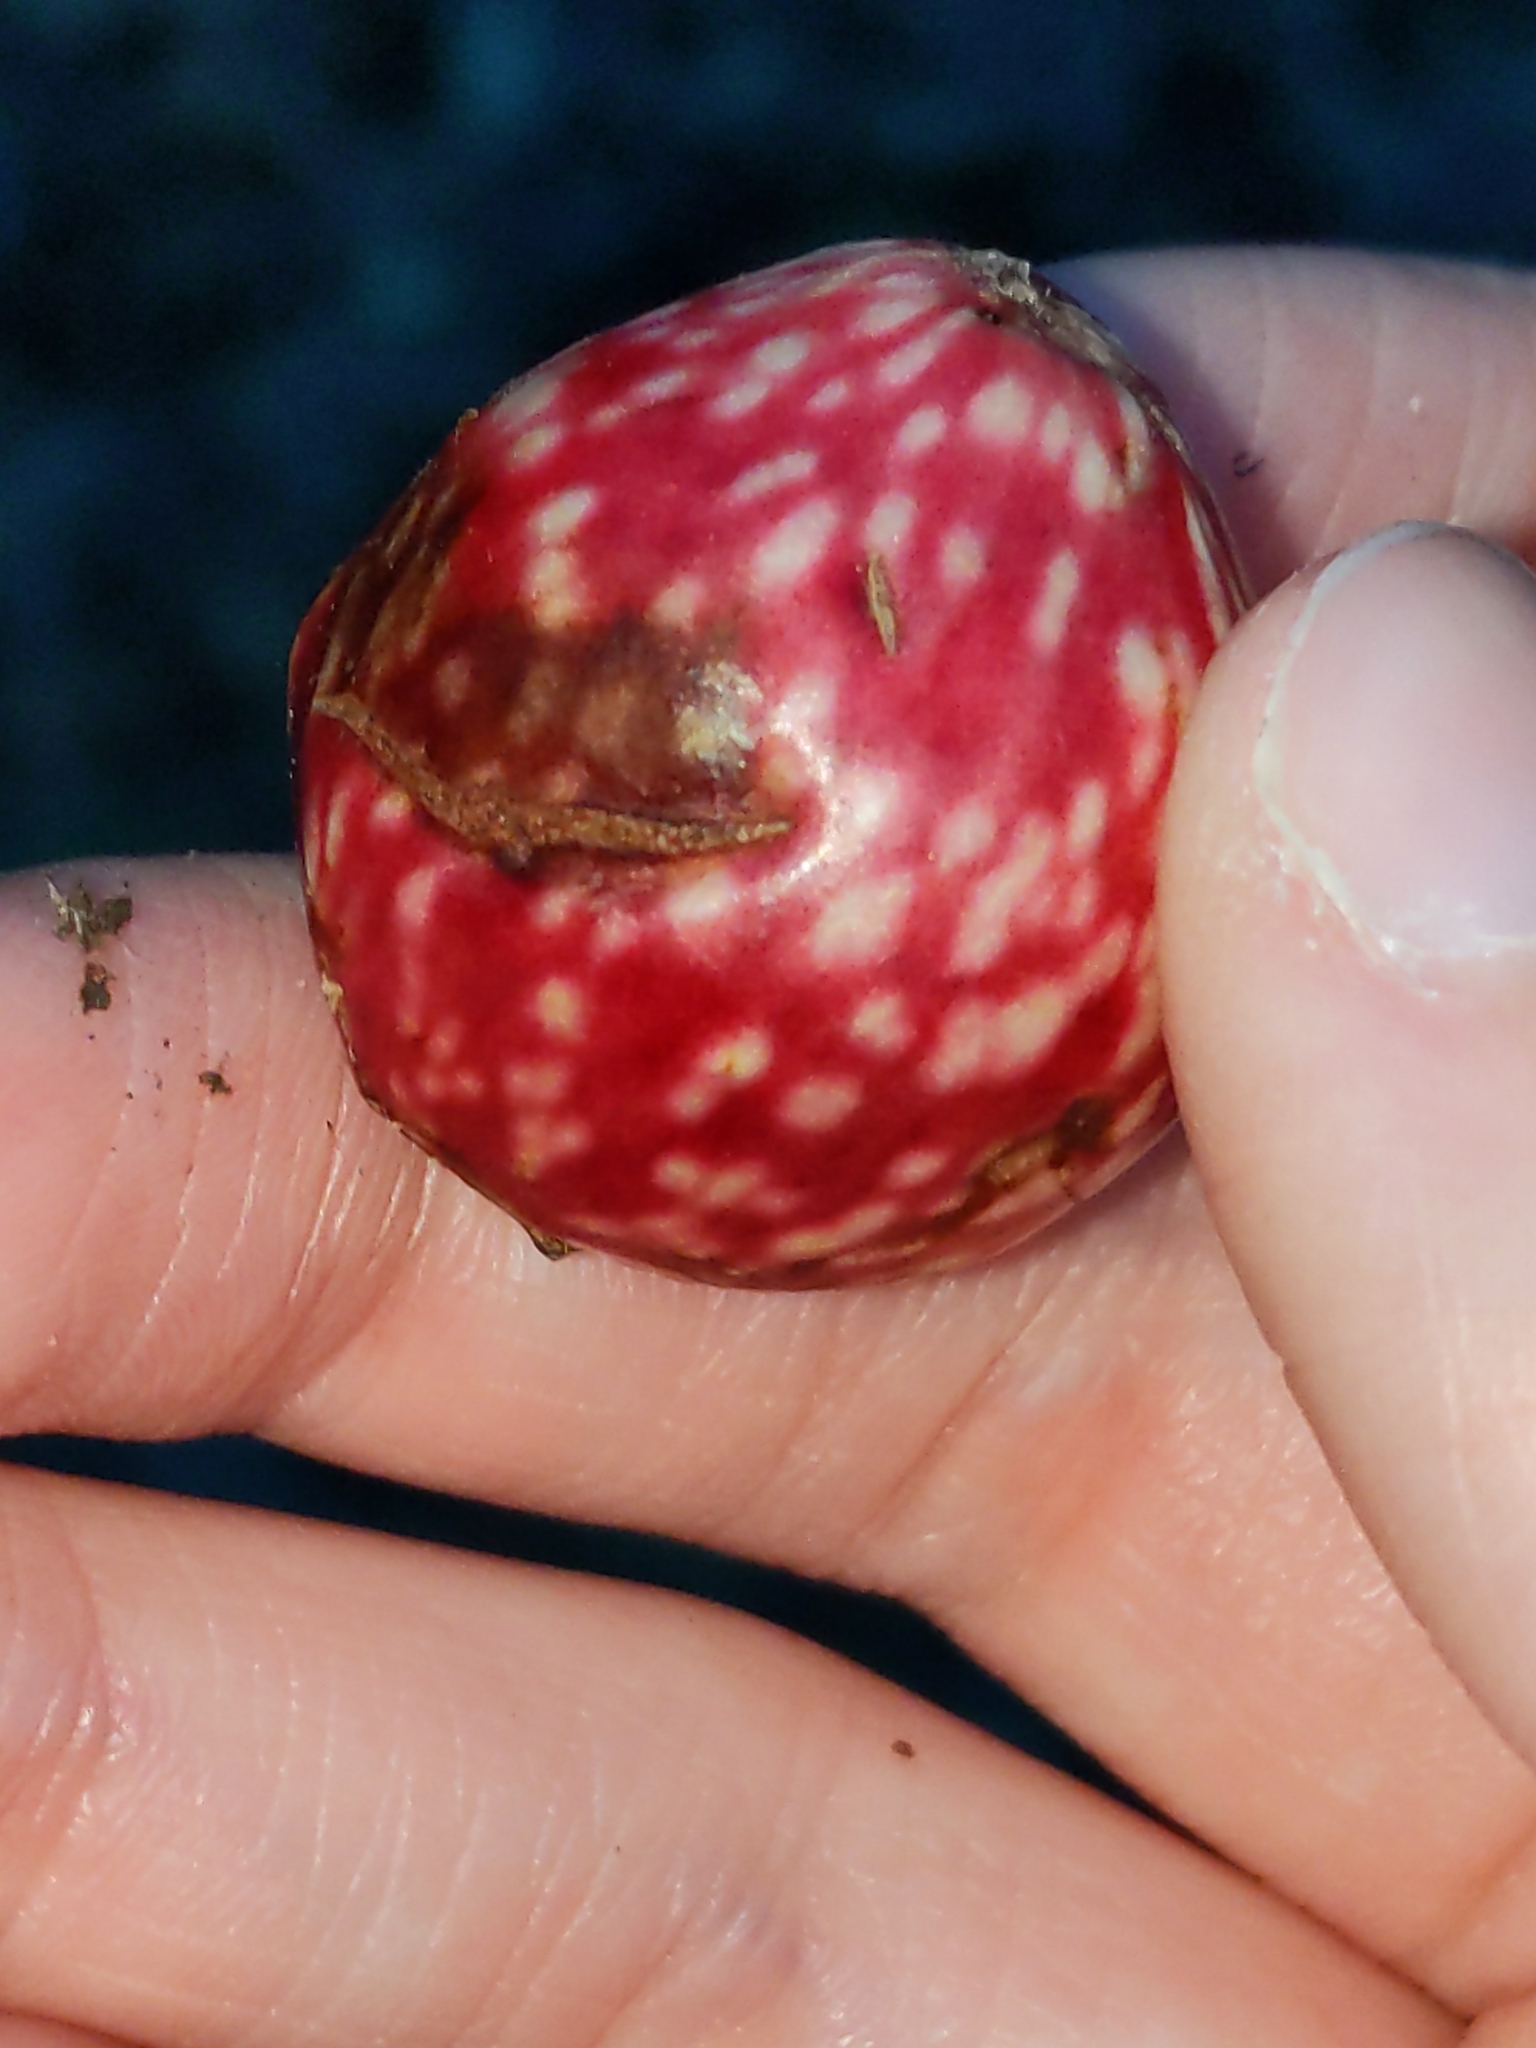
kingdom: Animalia
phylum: Arthropoda
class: Insecta
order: Hymenoptera
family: Cynipidae
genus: Amphibolips
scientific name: Amphibolips
